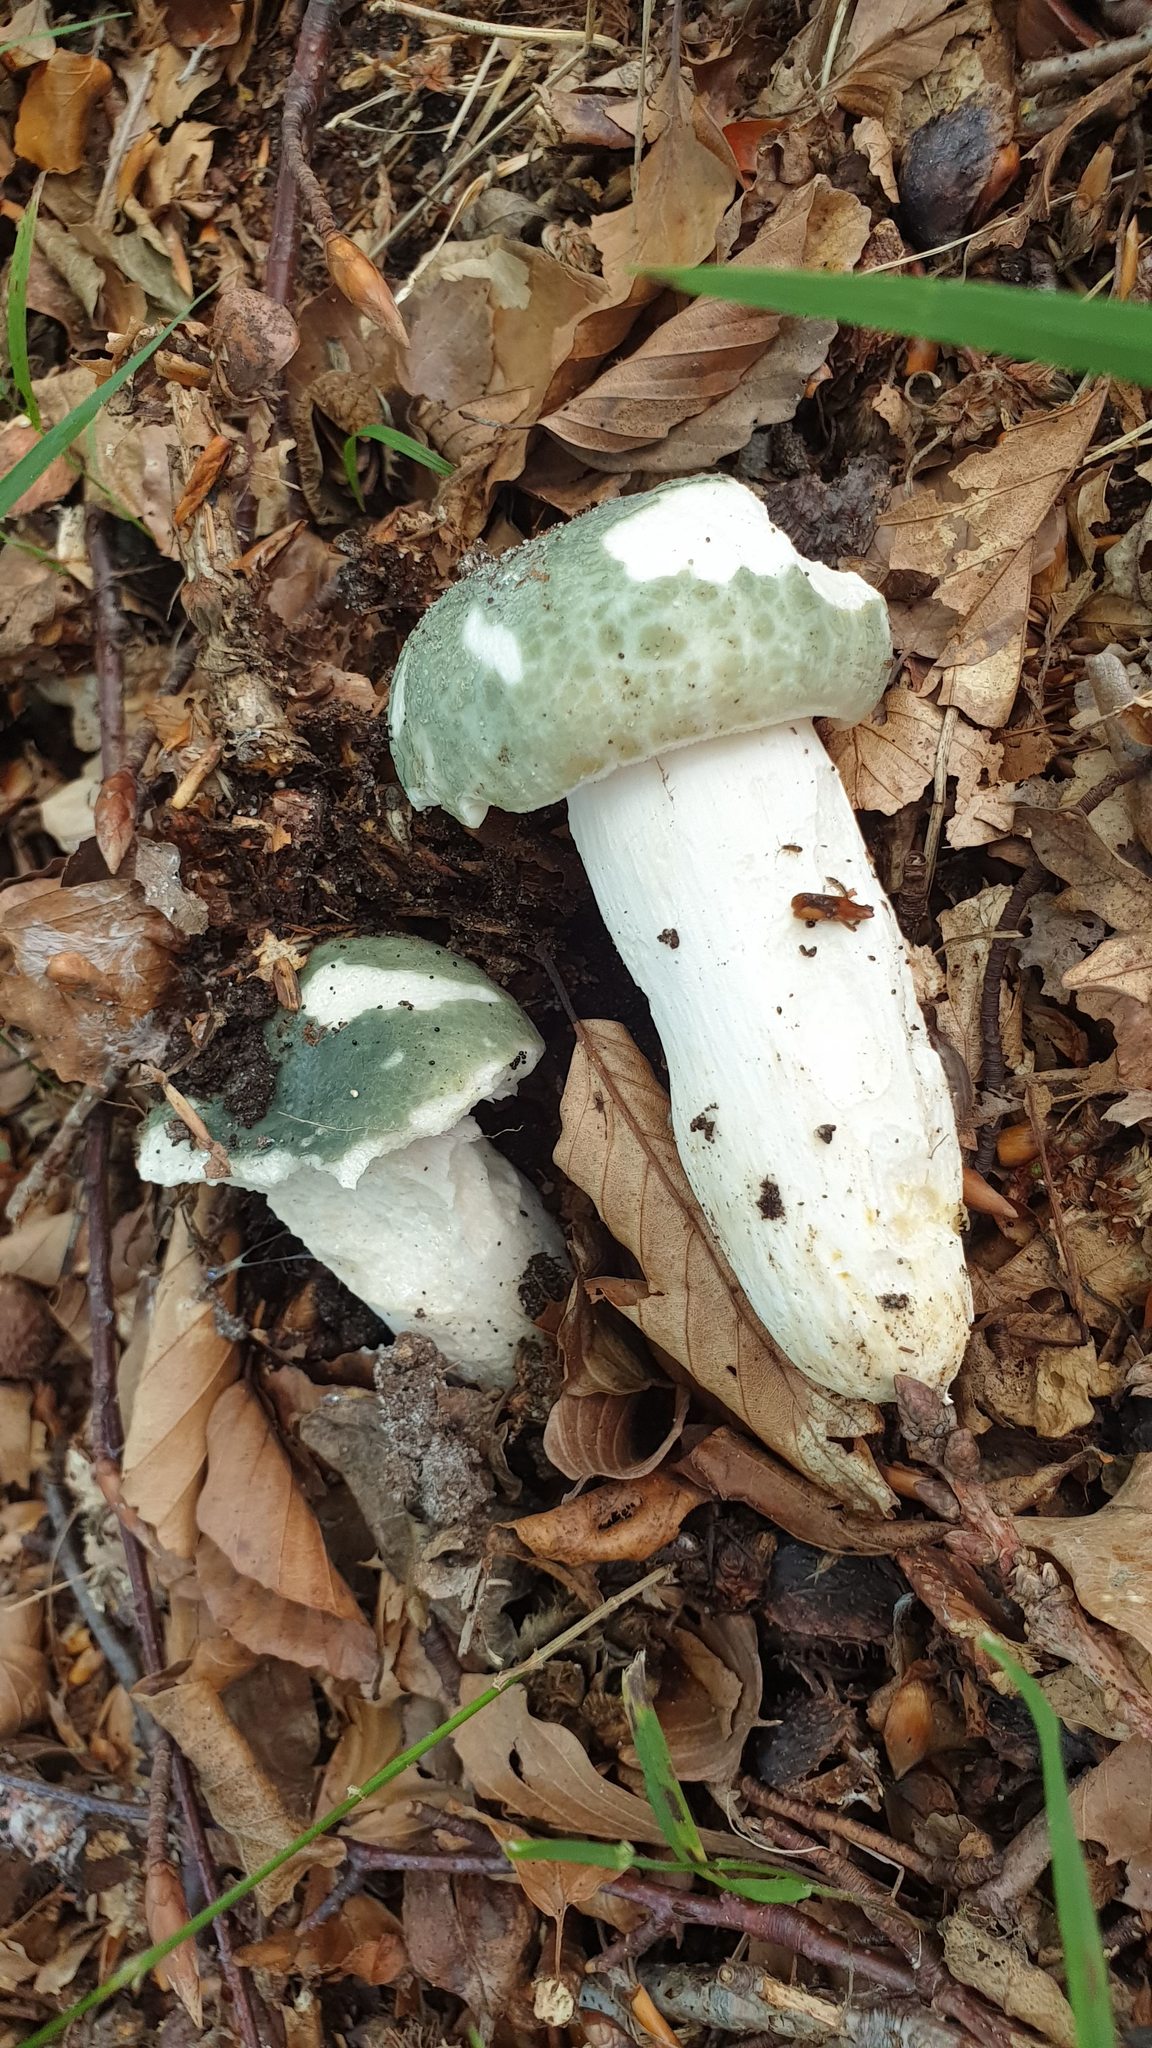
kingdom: Fungi
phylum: Basidiomycota
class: Agaricomycetes
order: Russulales
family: Russulaceae
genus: Russula
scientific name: Russula virescens
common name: Greencracked brittlegill
